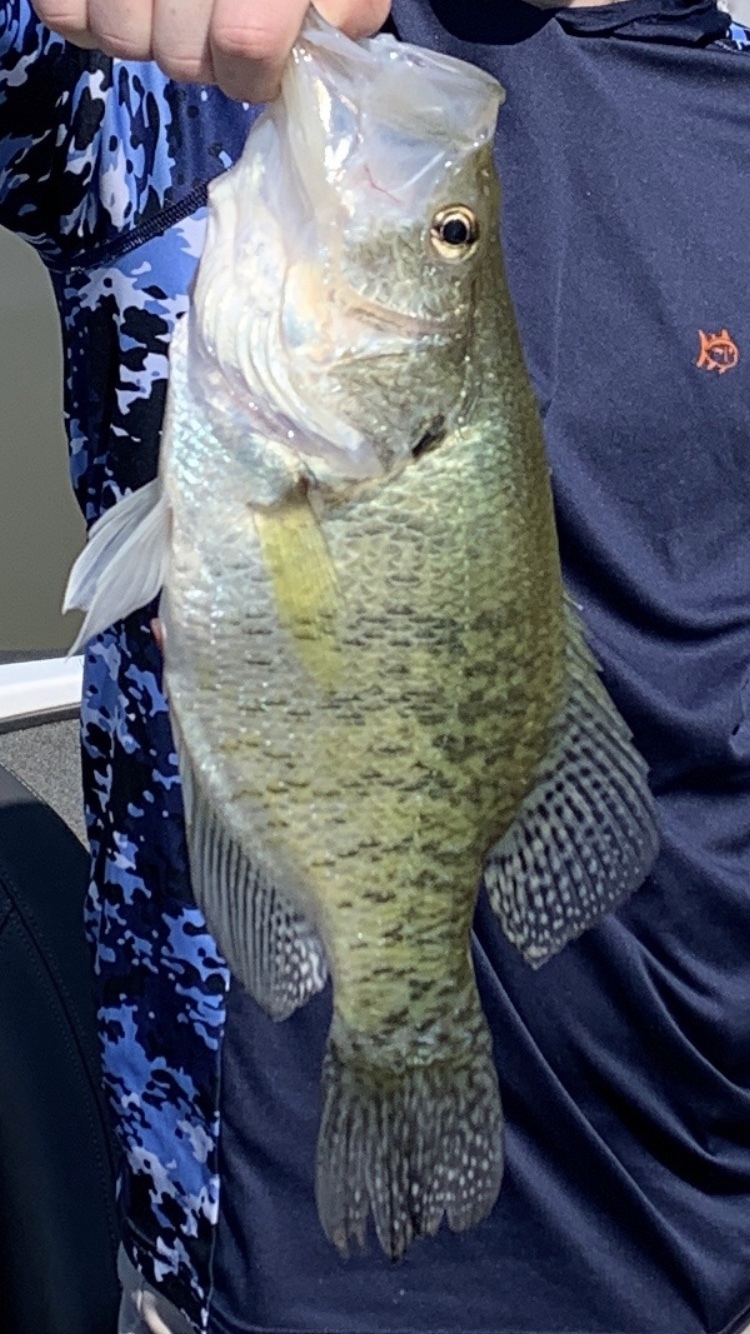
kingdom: Animalia
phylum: Chordata
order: Perciformes
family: Centrarchidae
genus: Pomoxis
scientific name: Pomoxis annularis
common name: White crappie
